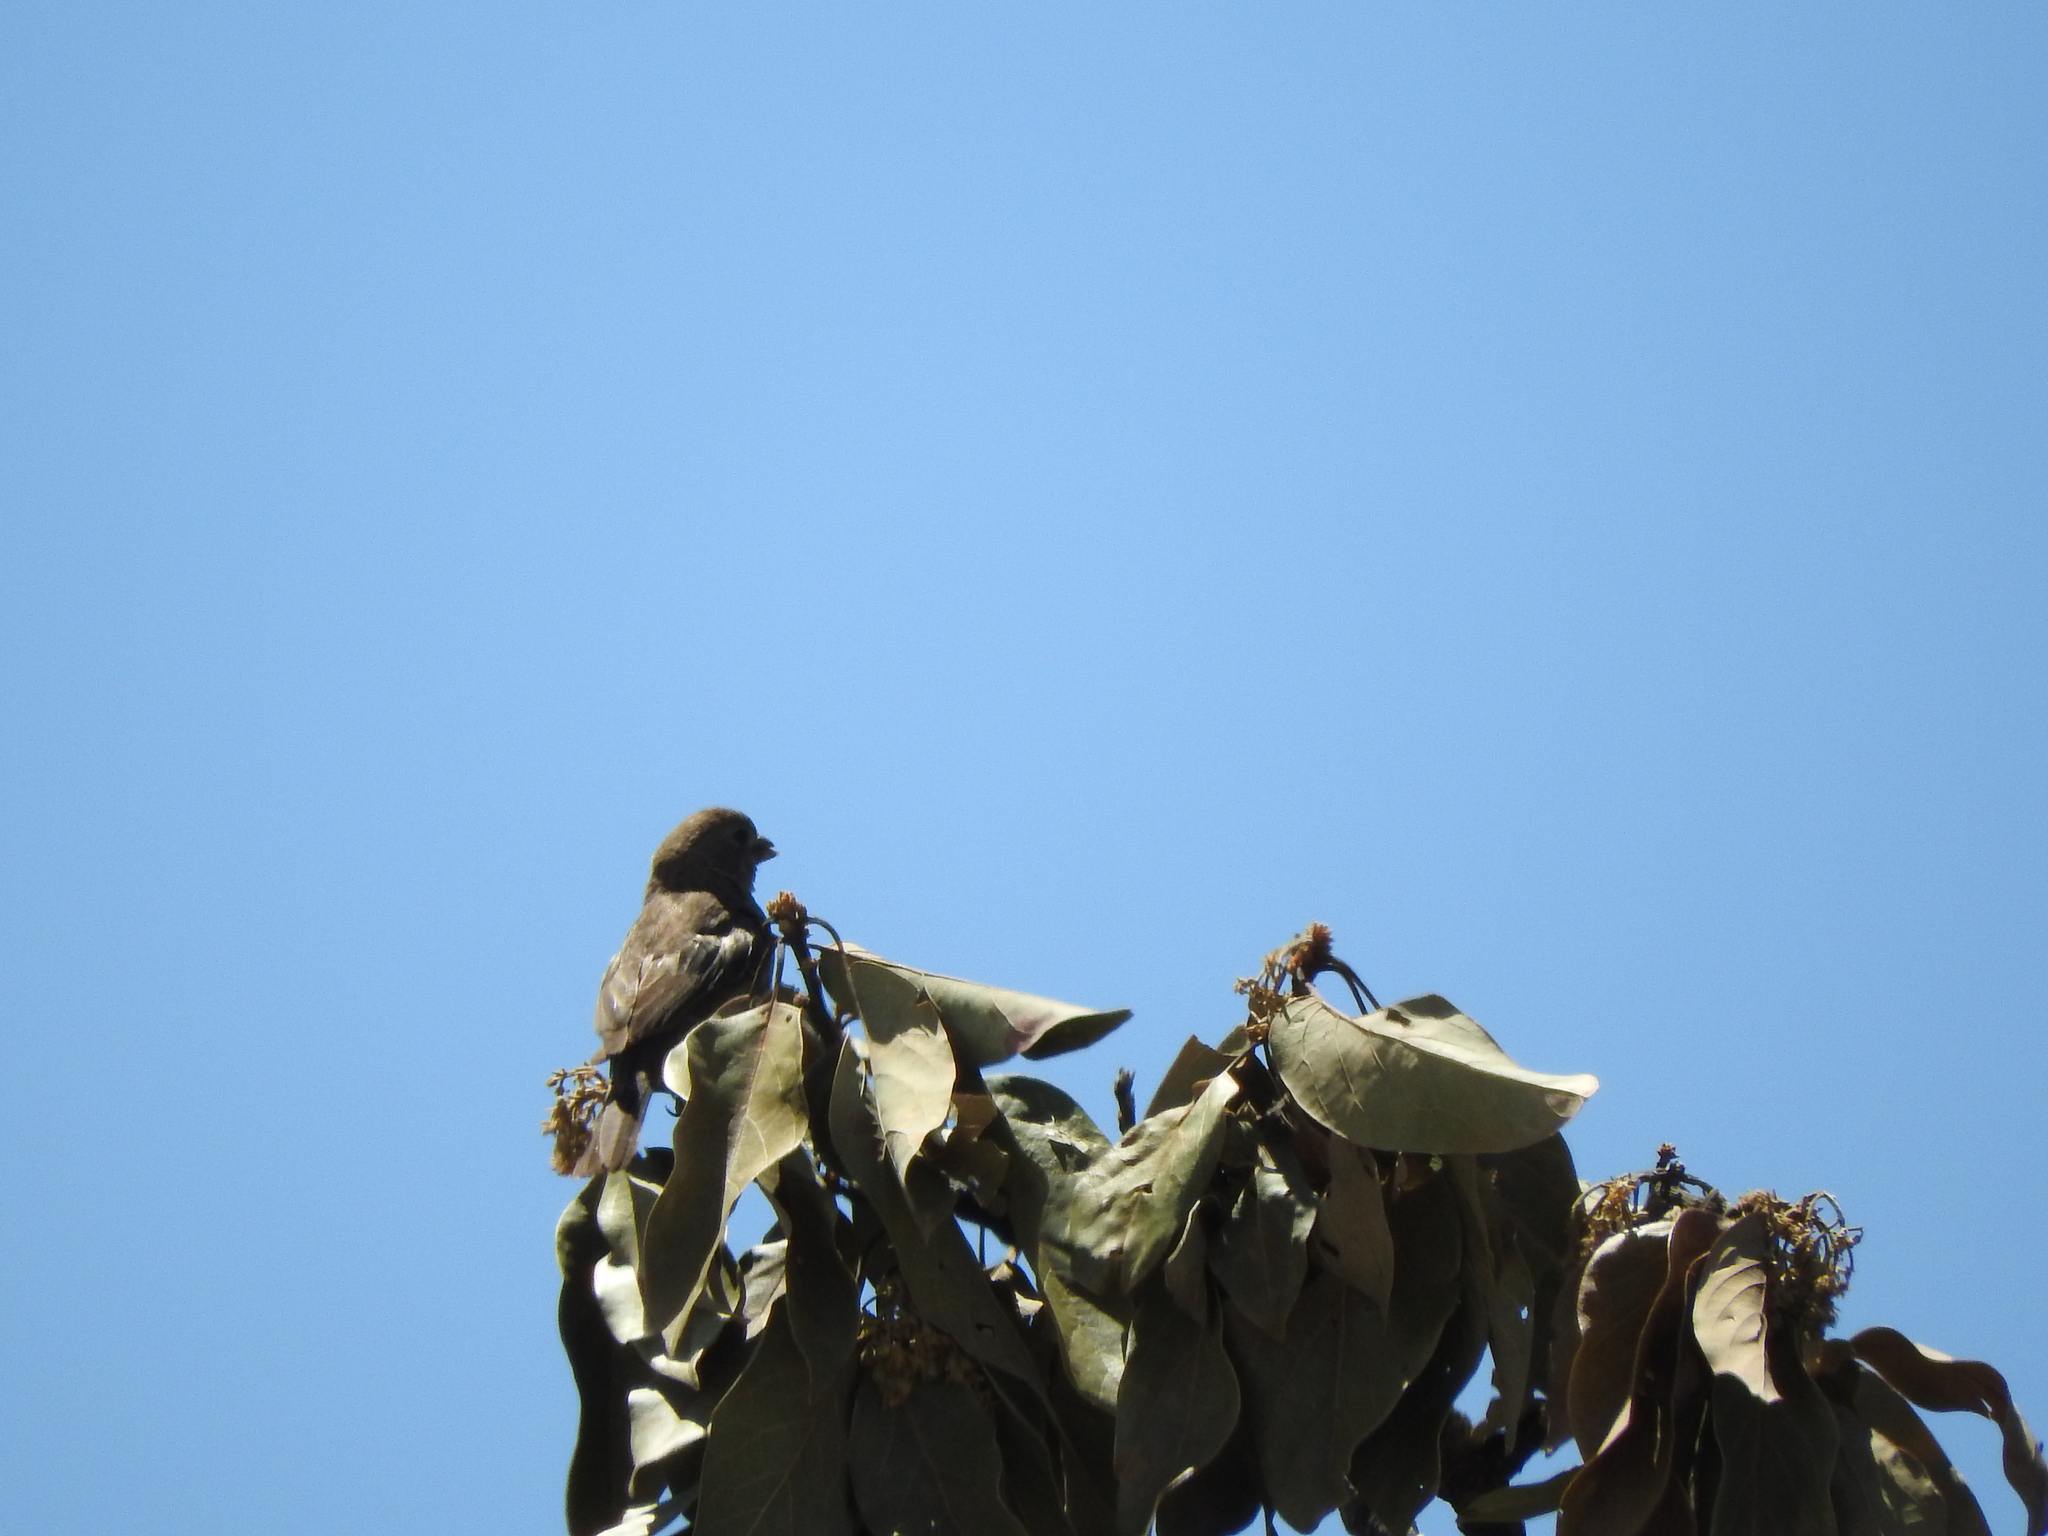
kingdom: Animalia
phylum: Chordata
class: Aves
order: Passeriformes
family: Fringillidae
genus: Haemorhous
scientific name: Haemorhous mexicanus
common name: House finch
